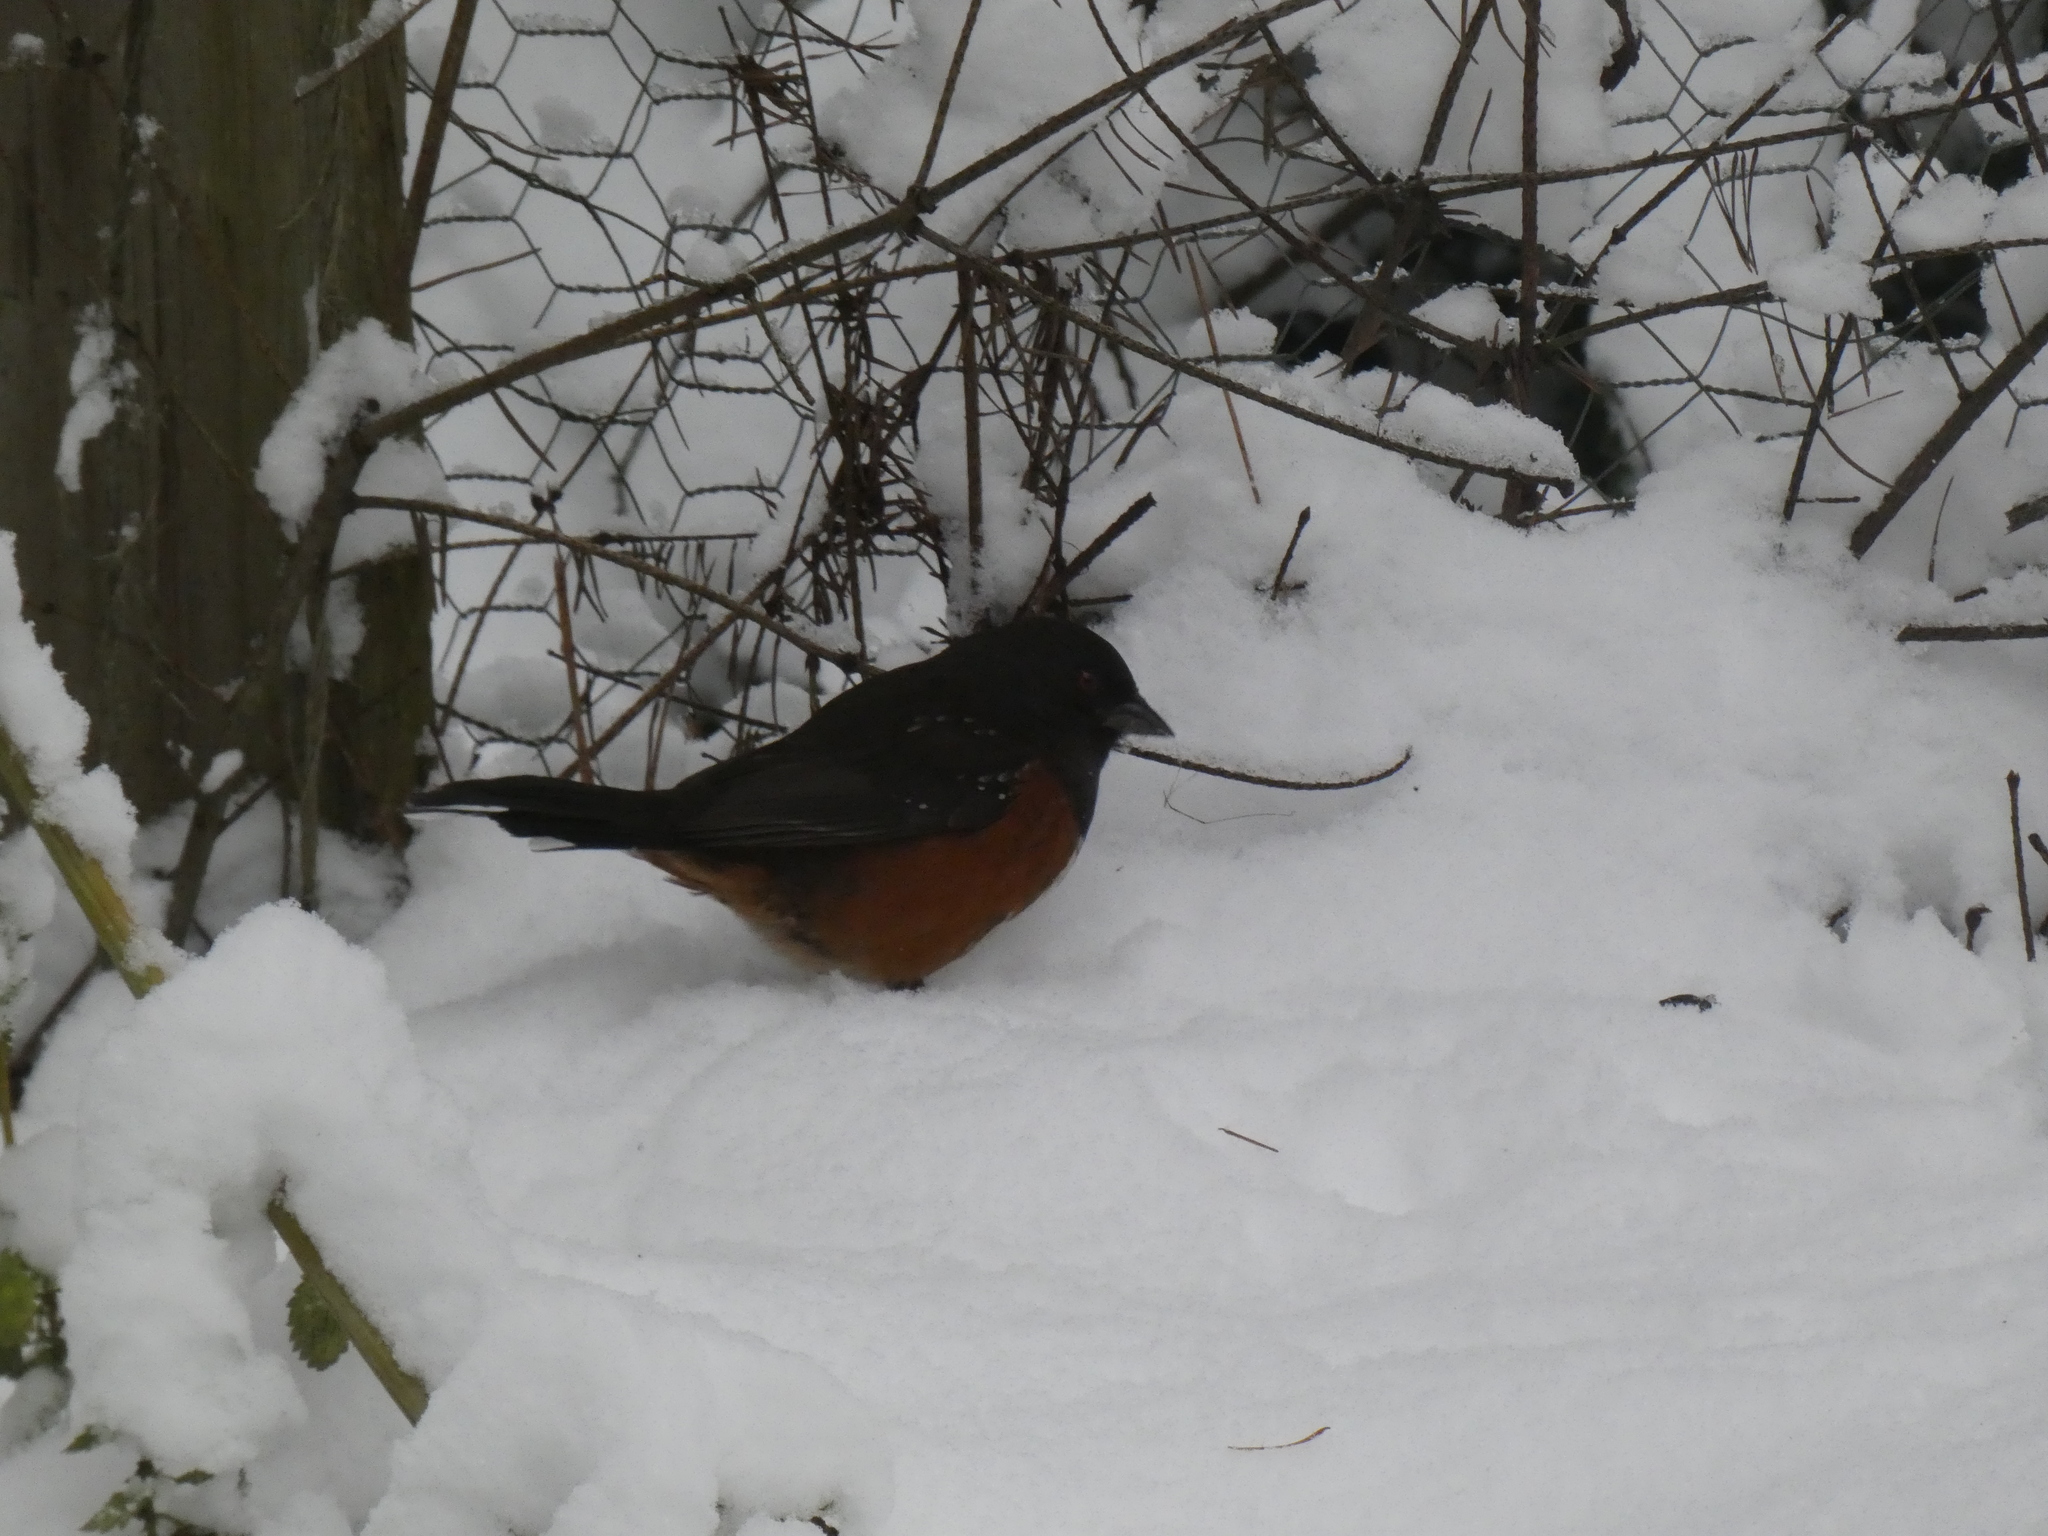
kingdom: Animalia
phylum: Chordata
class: Aves
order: Passeriformes
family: Passerellidae
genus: Pipilo
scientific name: Pipilo maculatus
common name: Spotted towhee
